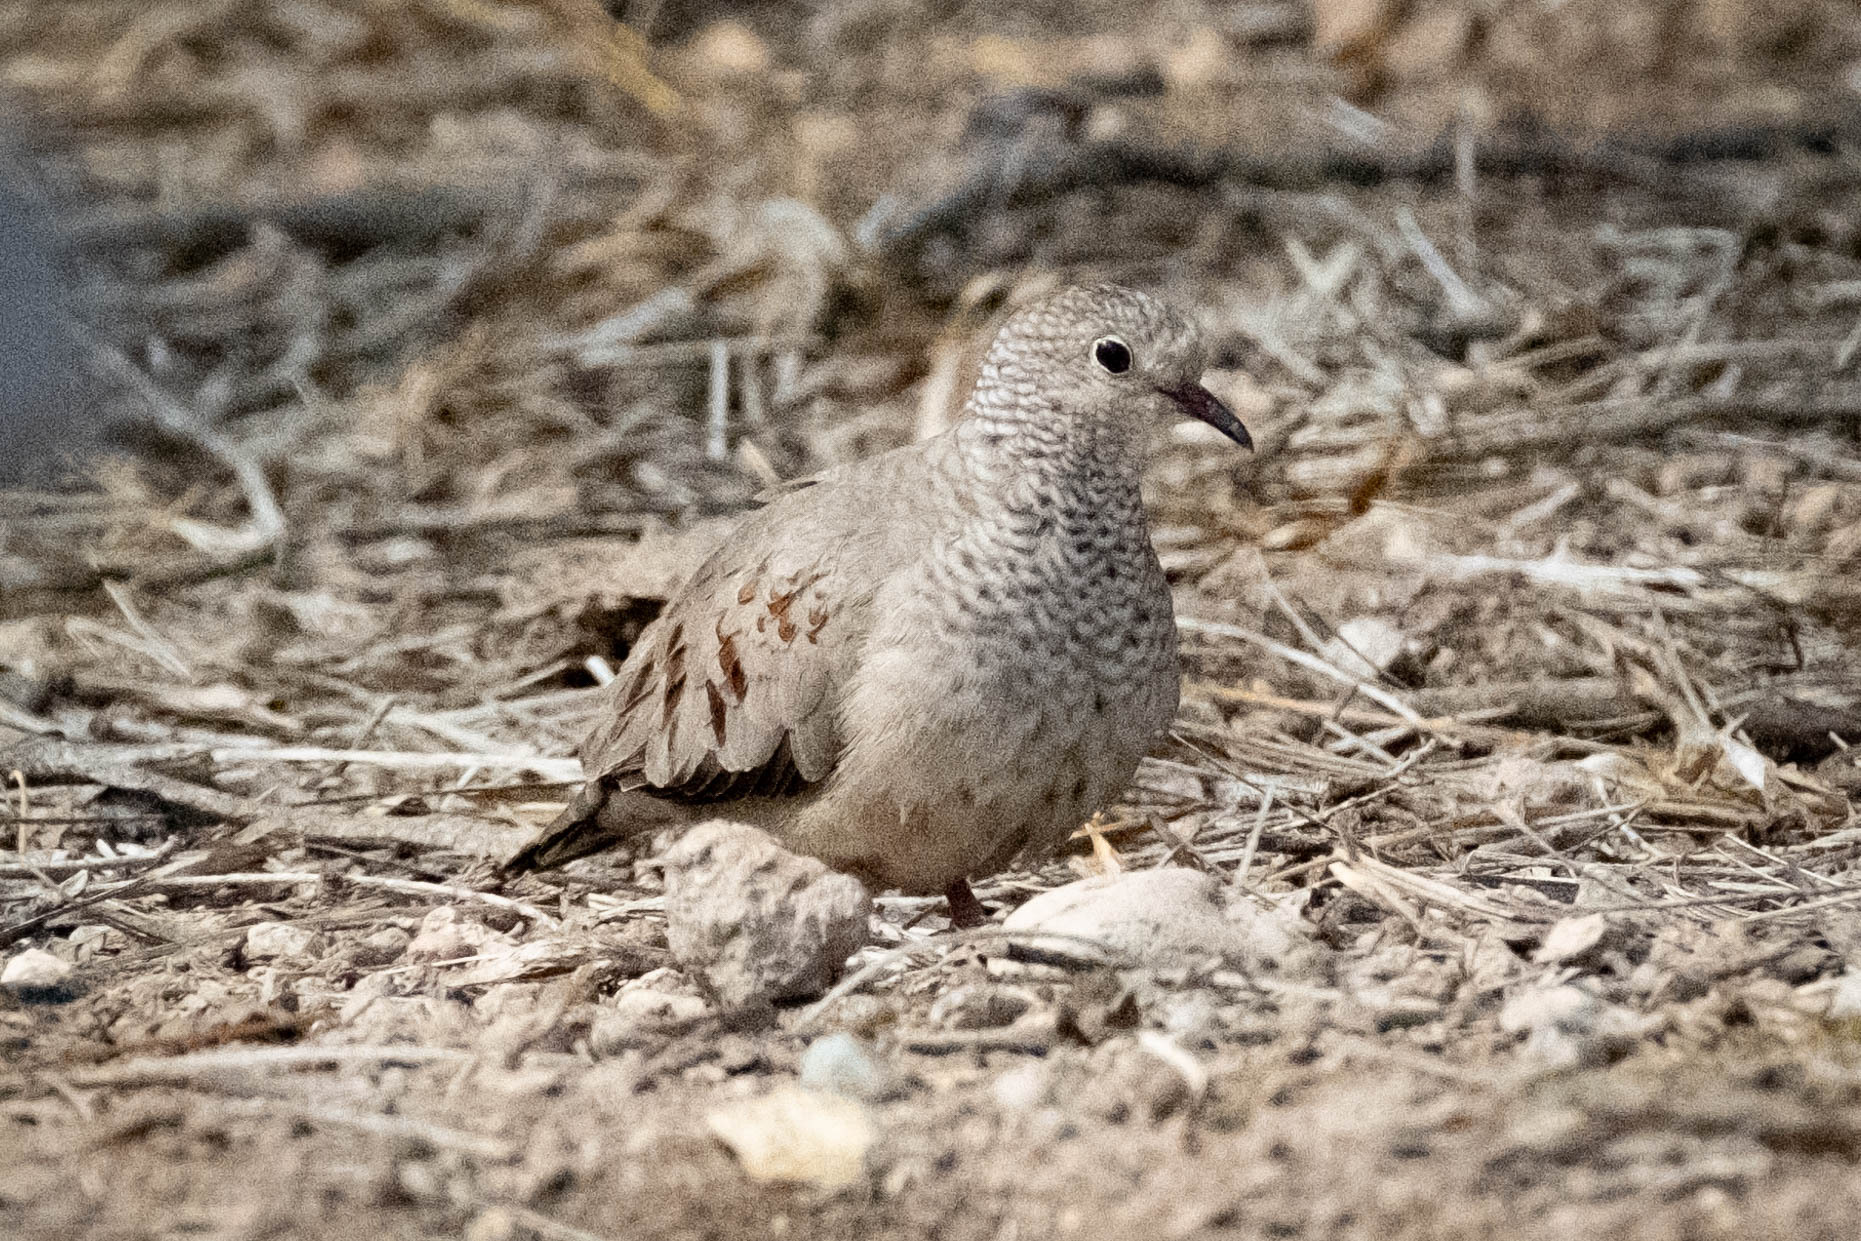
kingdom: Animalia
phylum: Chordata
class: Aves
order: Columbiformes
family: Columbidae
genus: Columbina
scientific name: Columbina passerina
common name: Common ground-dove
